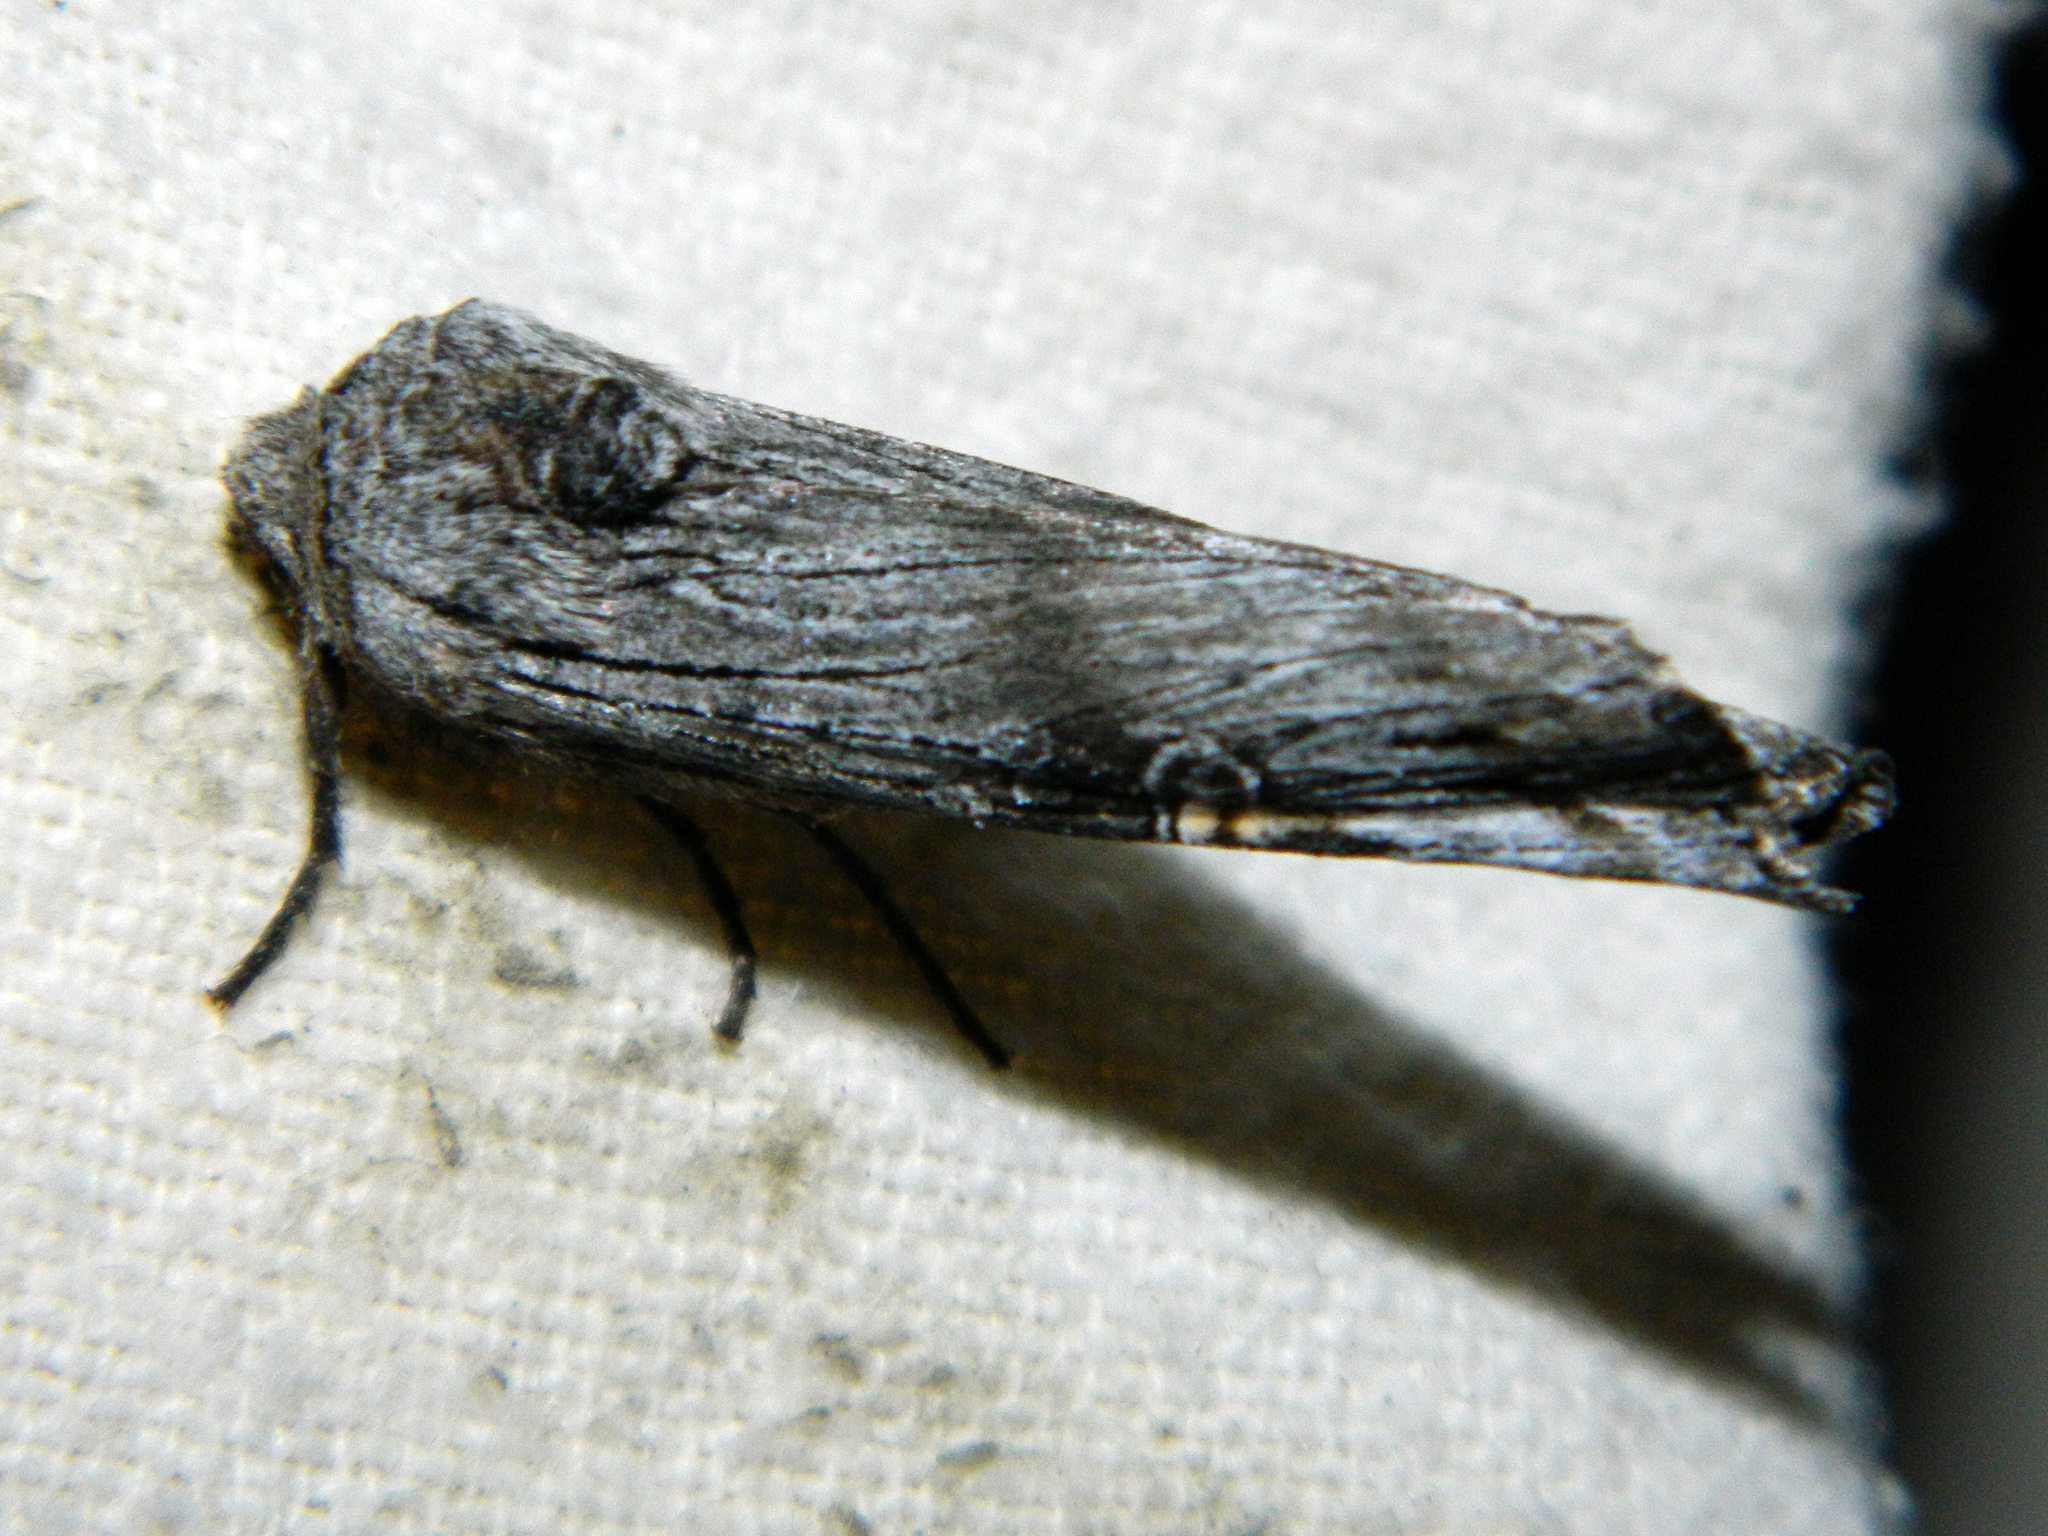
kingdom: Animalia
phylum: Arthropoda
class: Insecta
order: Lepidoptera
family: Noctuidae
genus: Xylena
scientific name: Xylena germana
